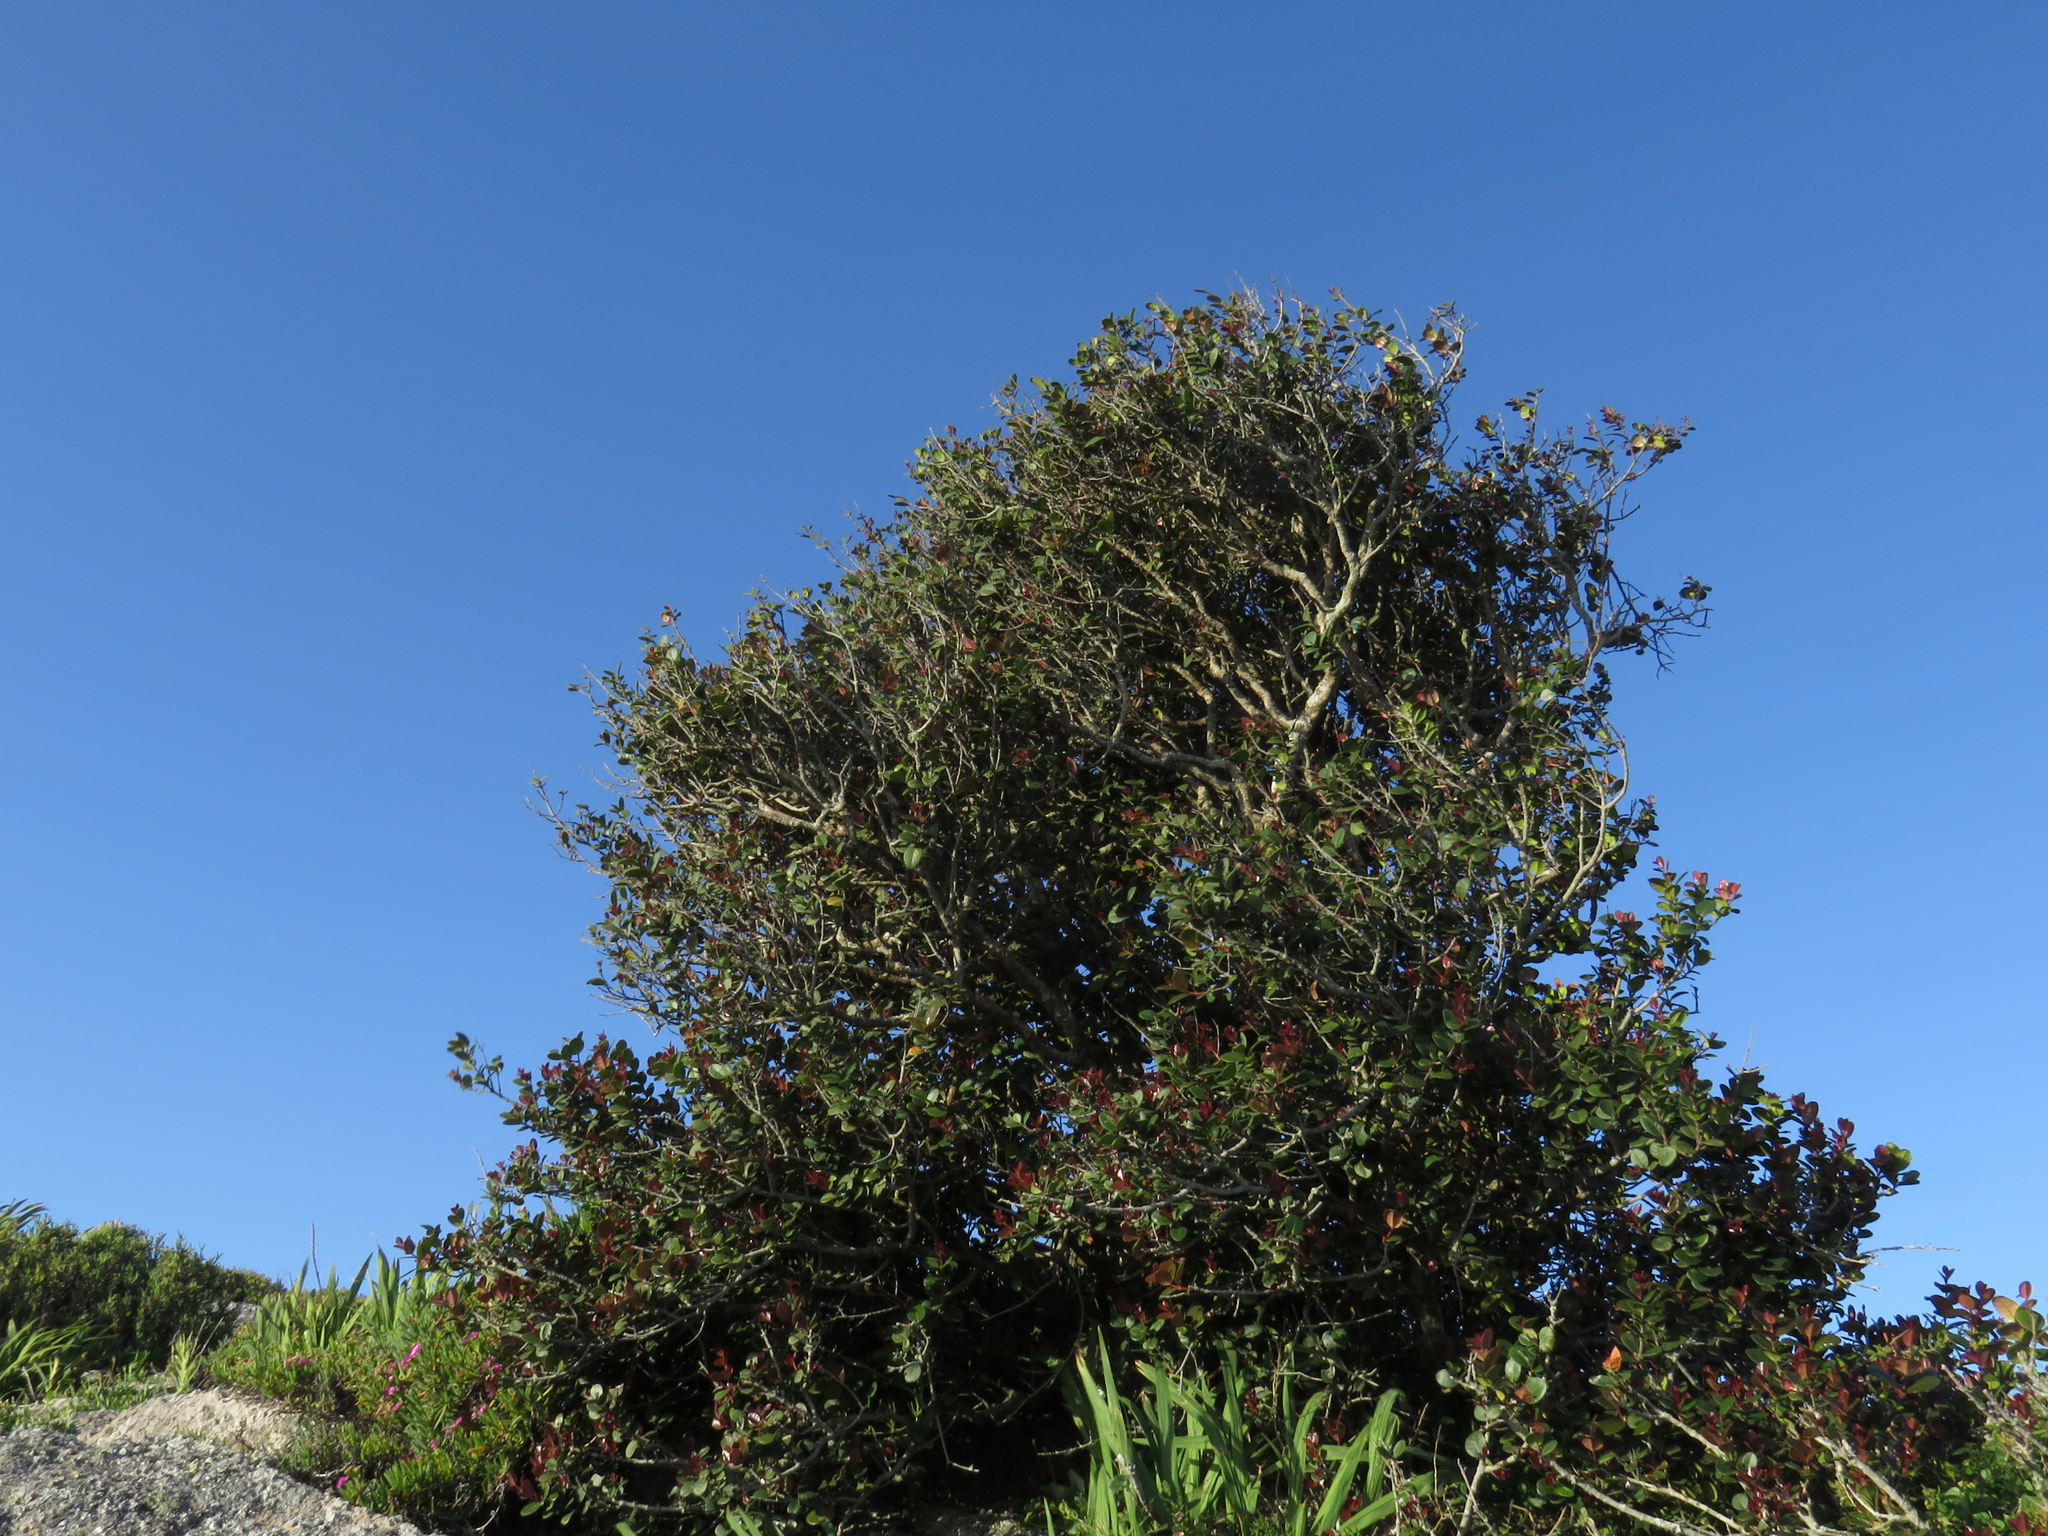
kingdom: Plantae
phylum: Tracheophyta
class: Magnoliopsida
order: Celastrales
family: Celastraceae
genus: Maurocenia
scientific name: Maurocenia frangula
